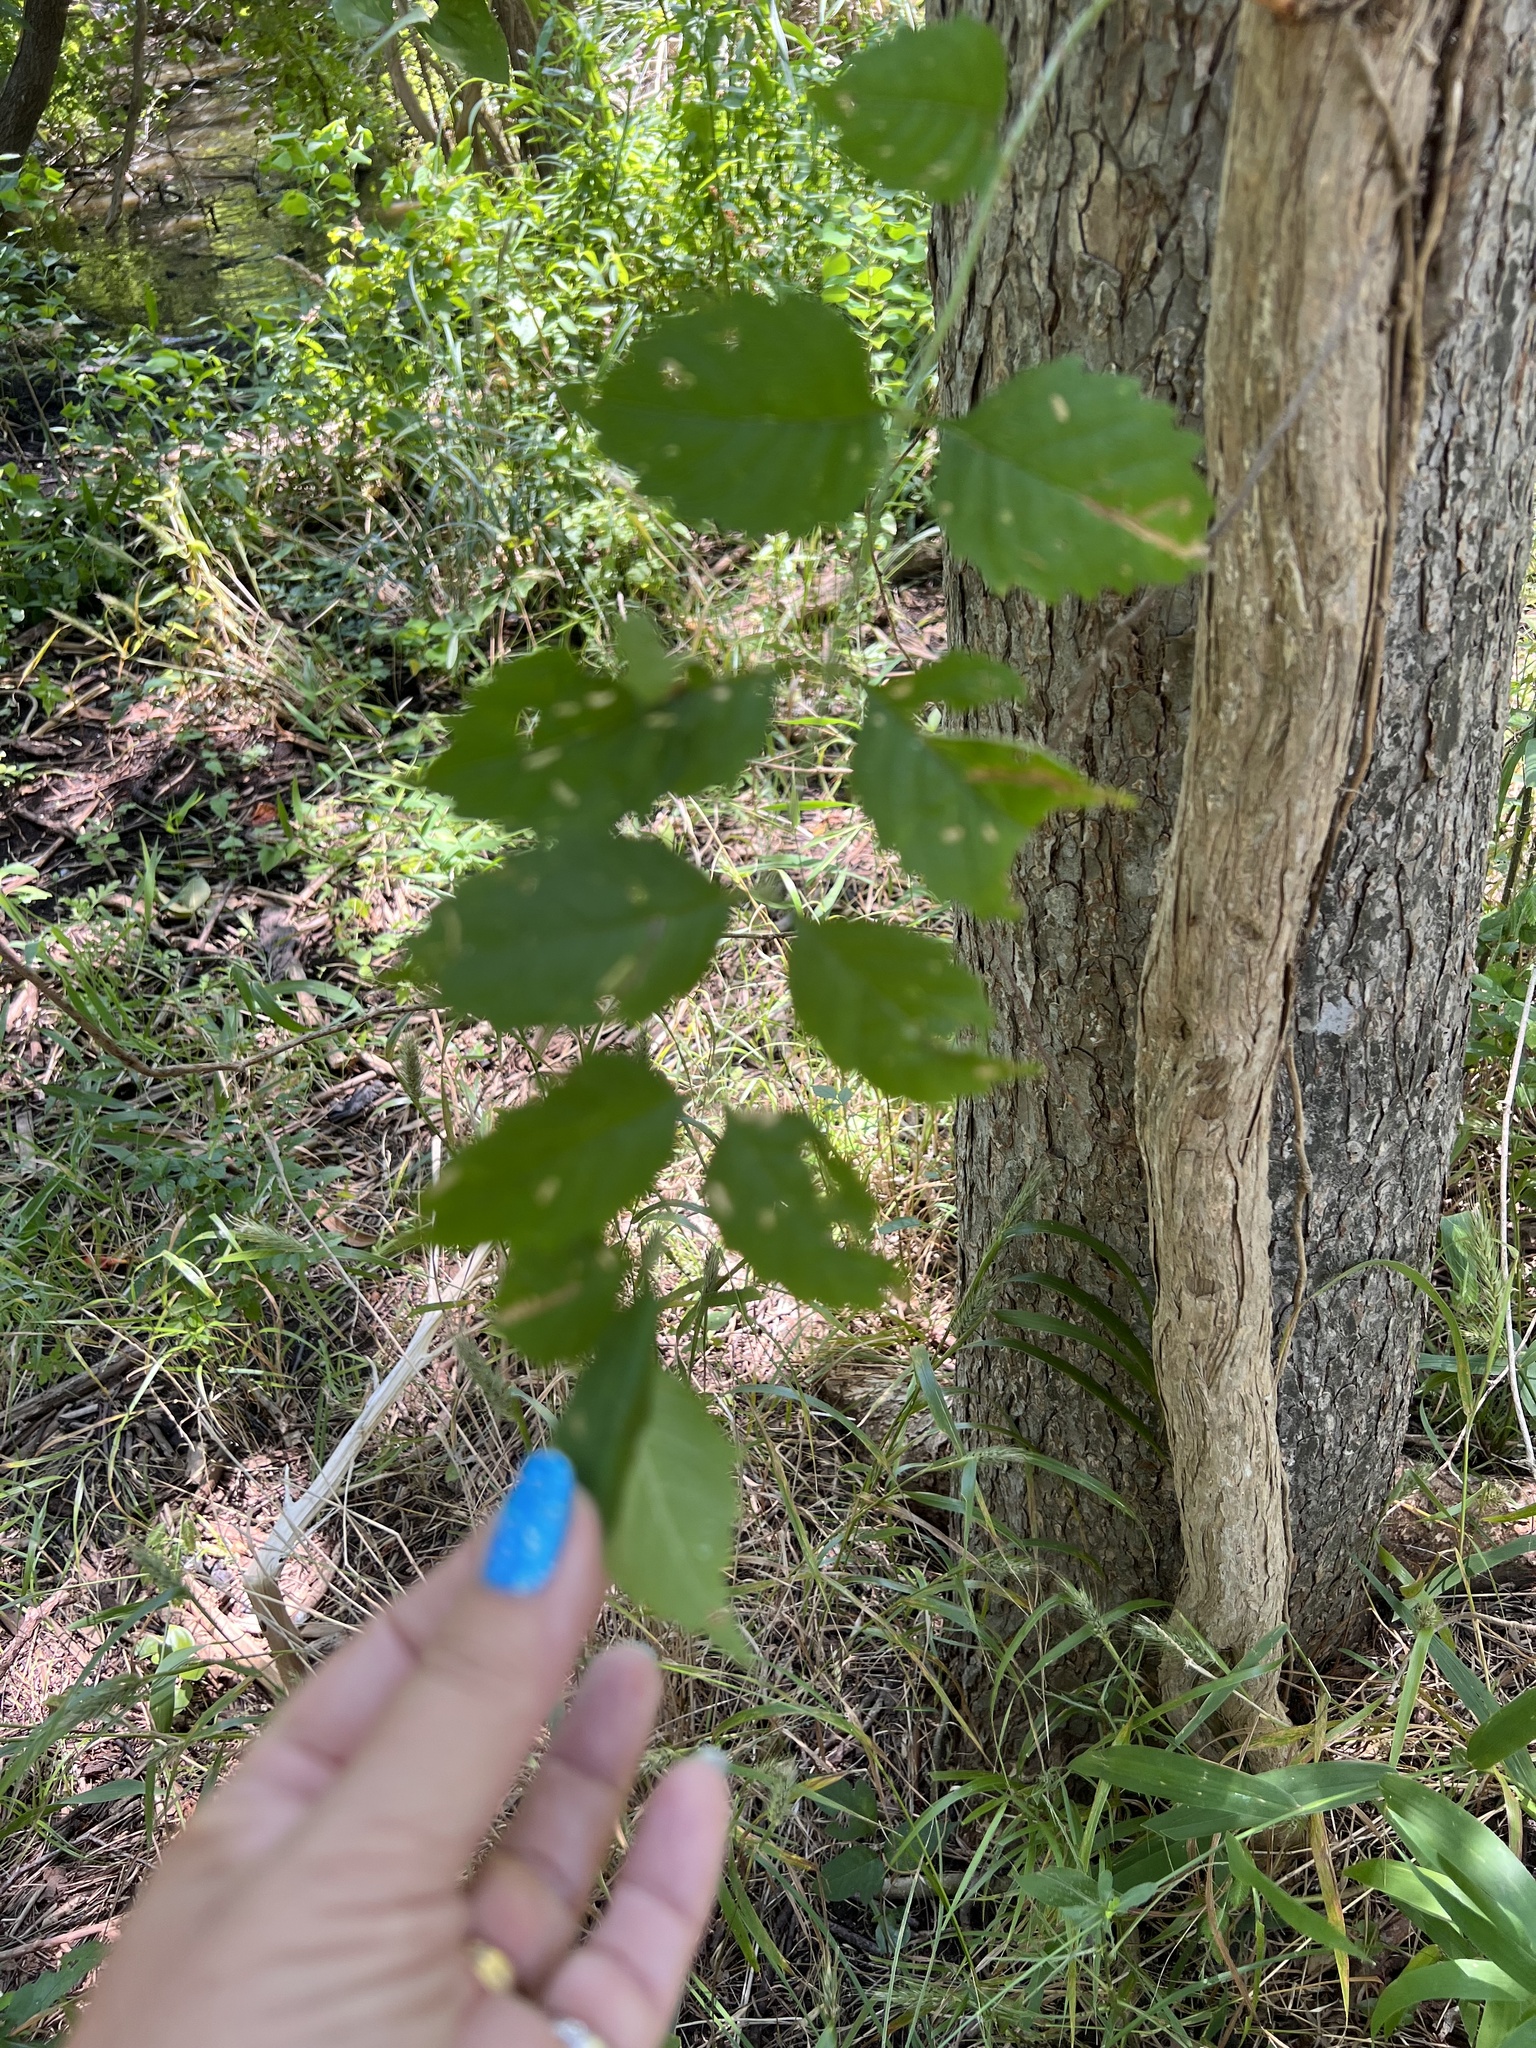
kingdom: Plantae
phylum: Tracheophyta
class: Magnoliopsida
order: Lamiales
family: Bignoniaceae
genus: Campsis
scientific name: Campsis radicans
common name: Trumpet-creeper
